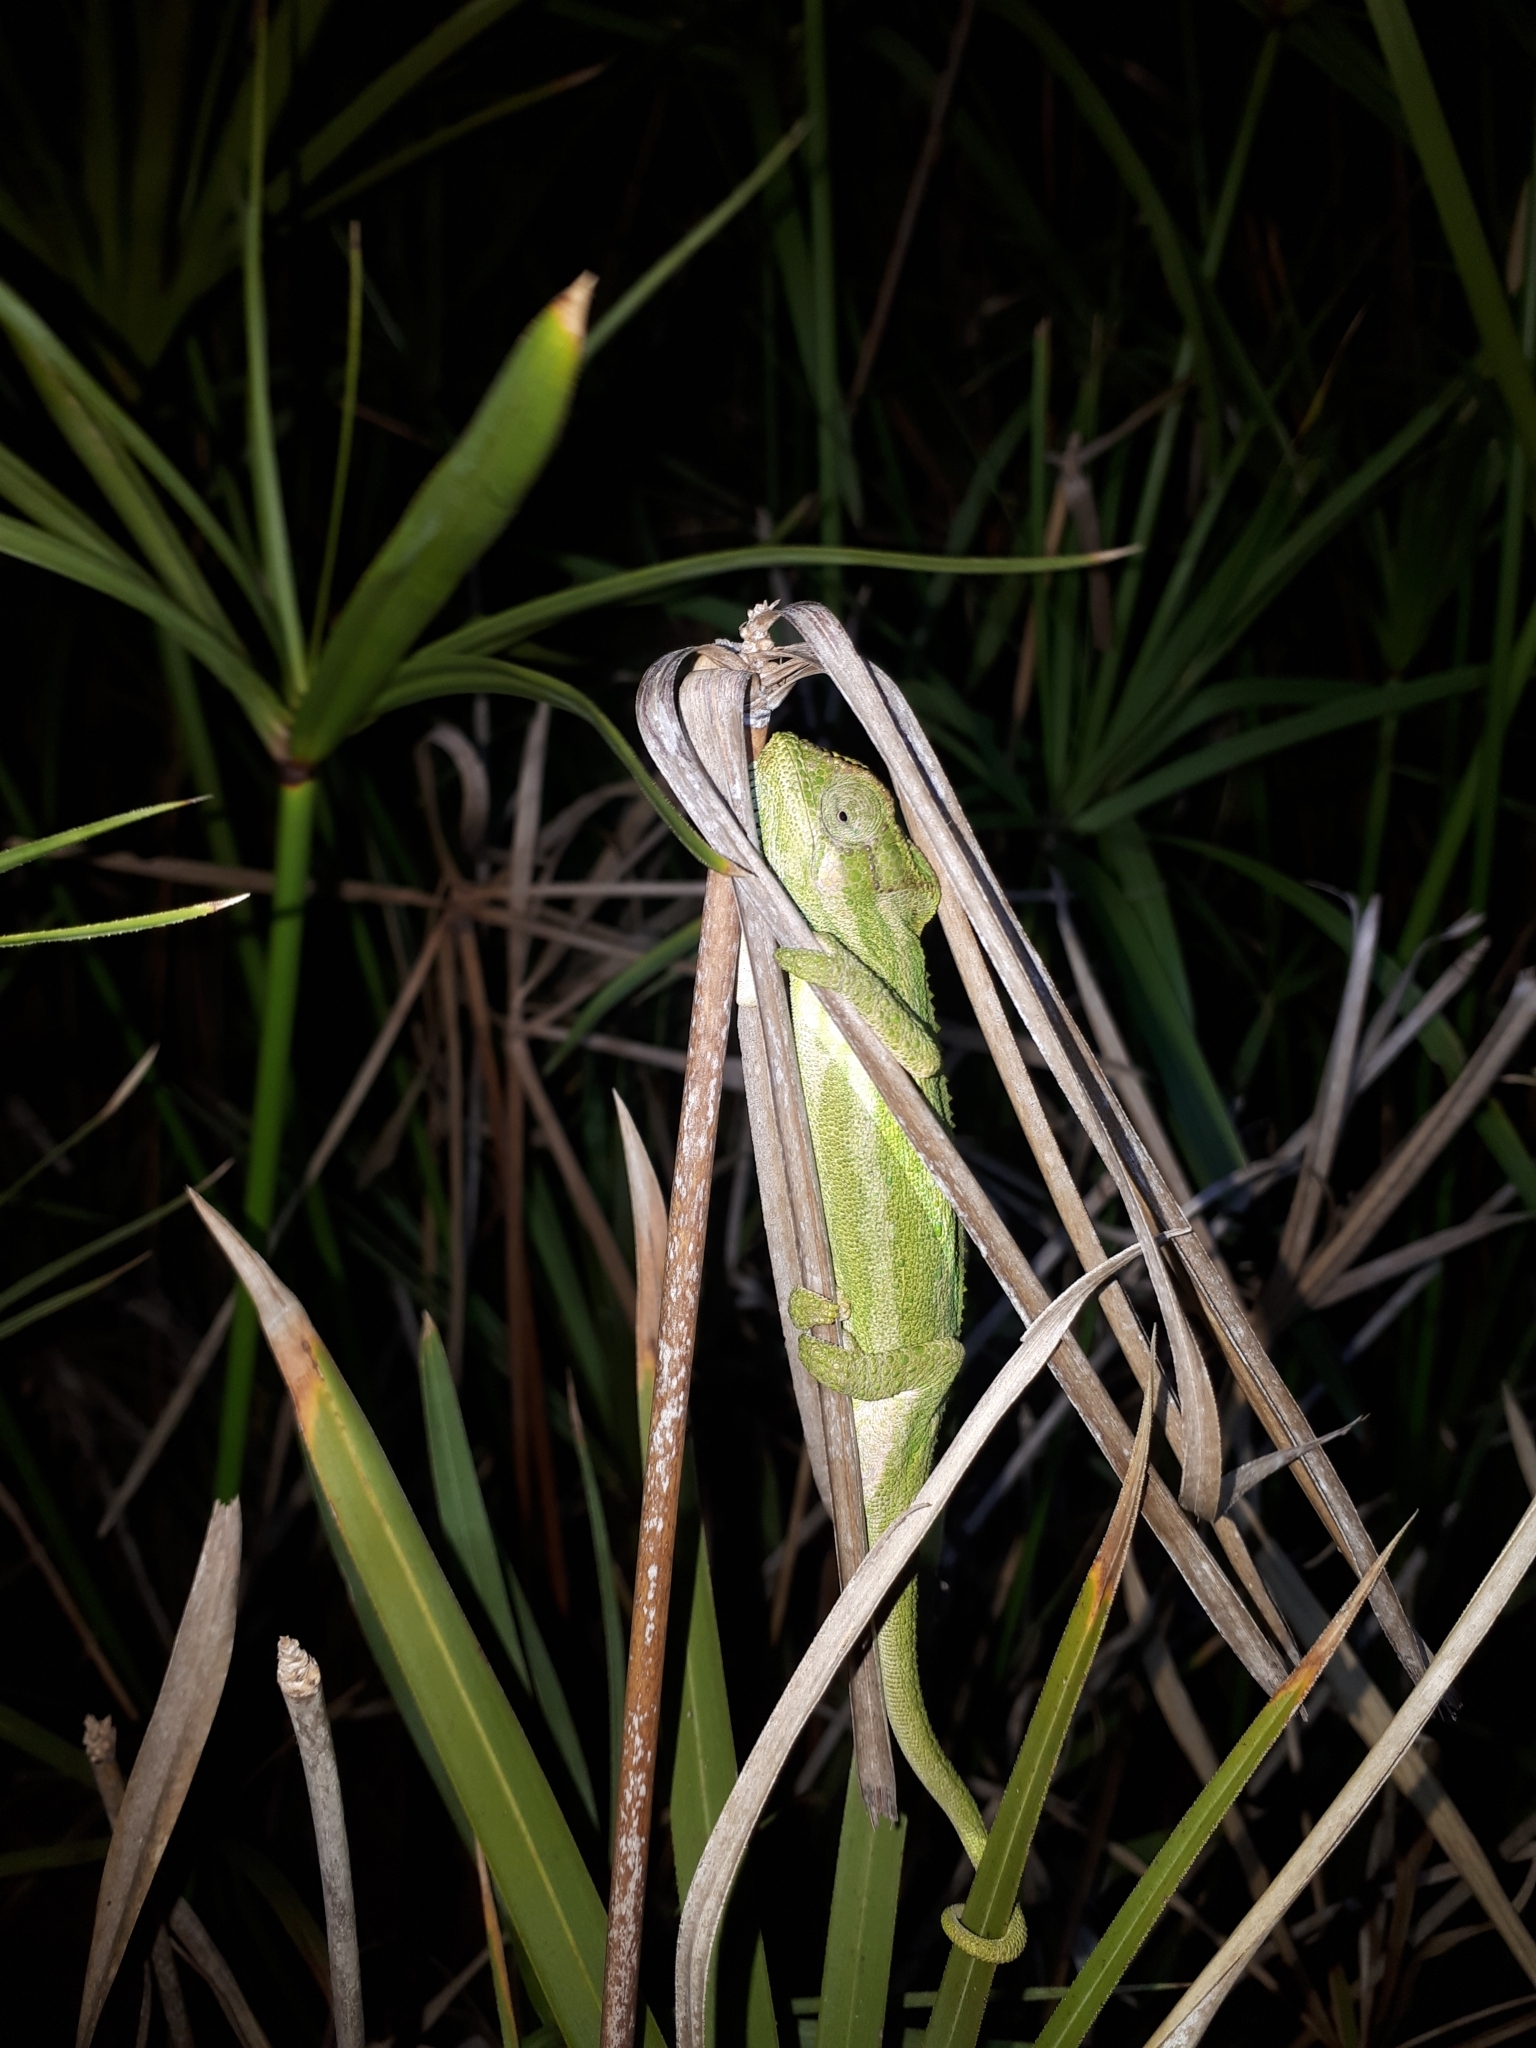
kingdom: Animalia
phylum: Chordata
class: Squamata
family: Chamaeleonidae
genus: Bradypodion
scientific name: Bradypodion pumilum
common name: Cape dwarf chameleon
